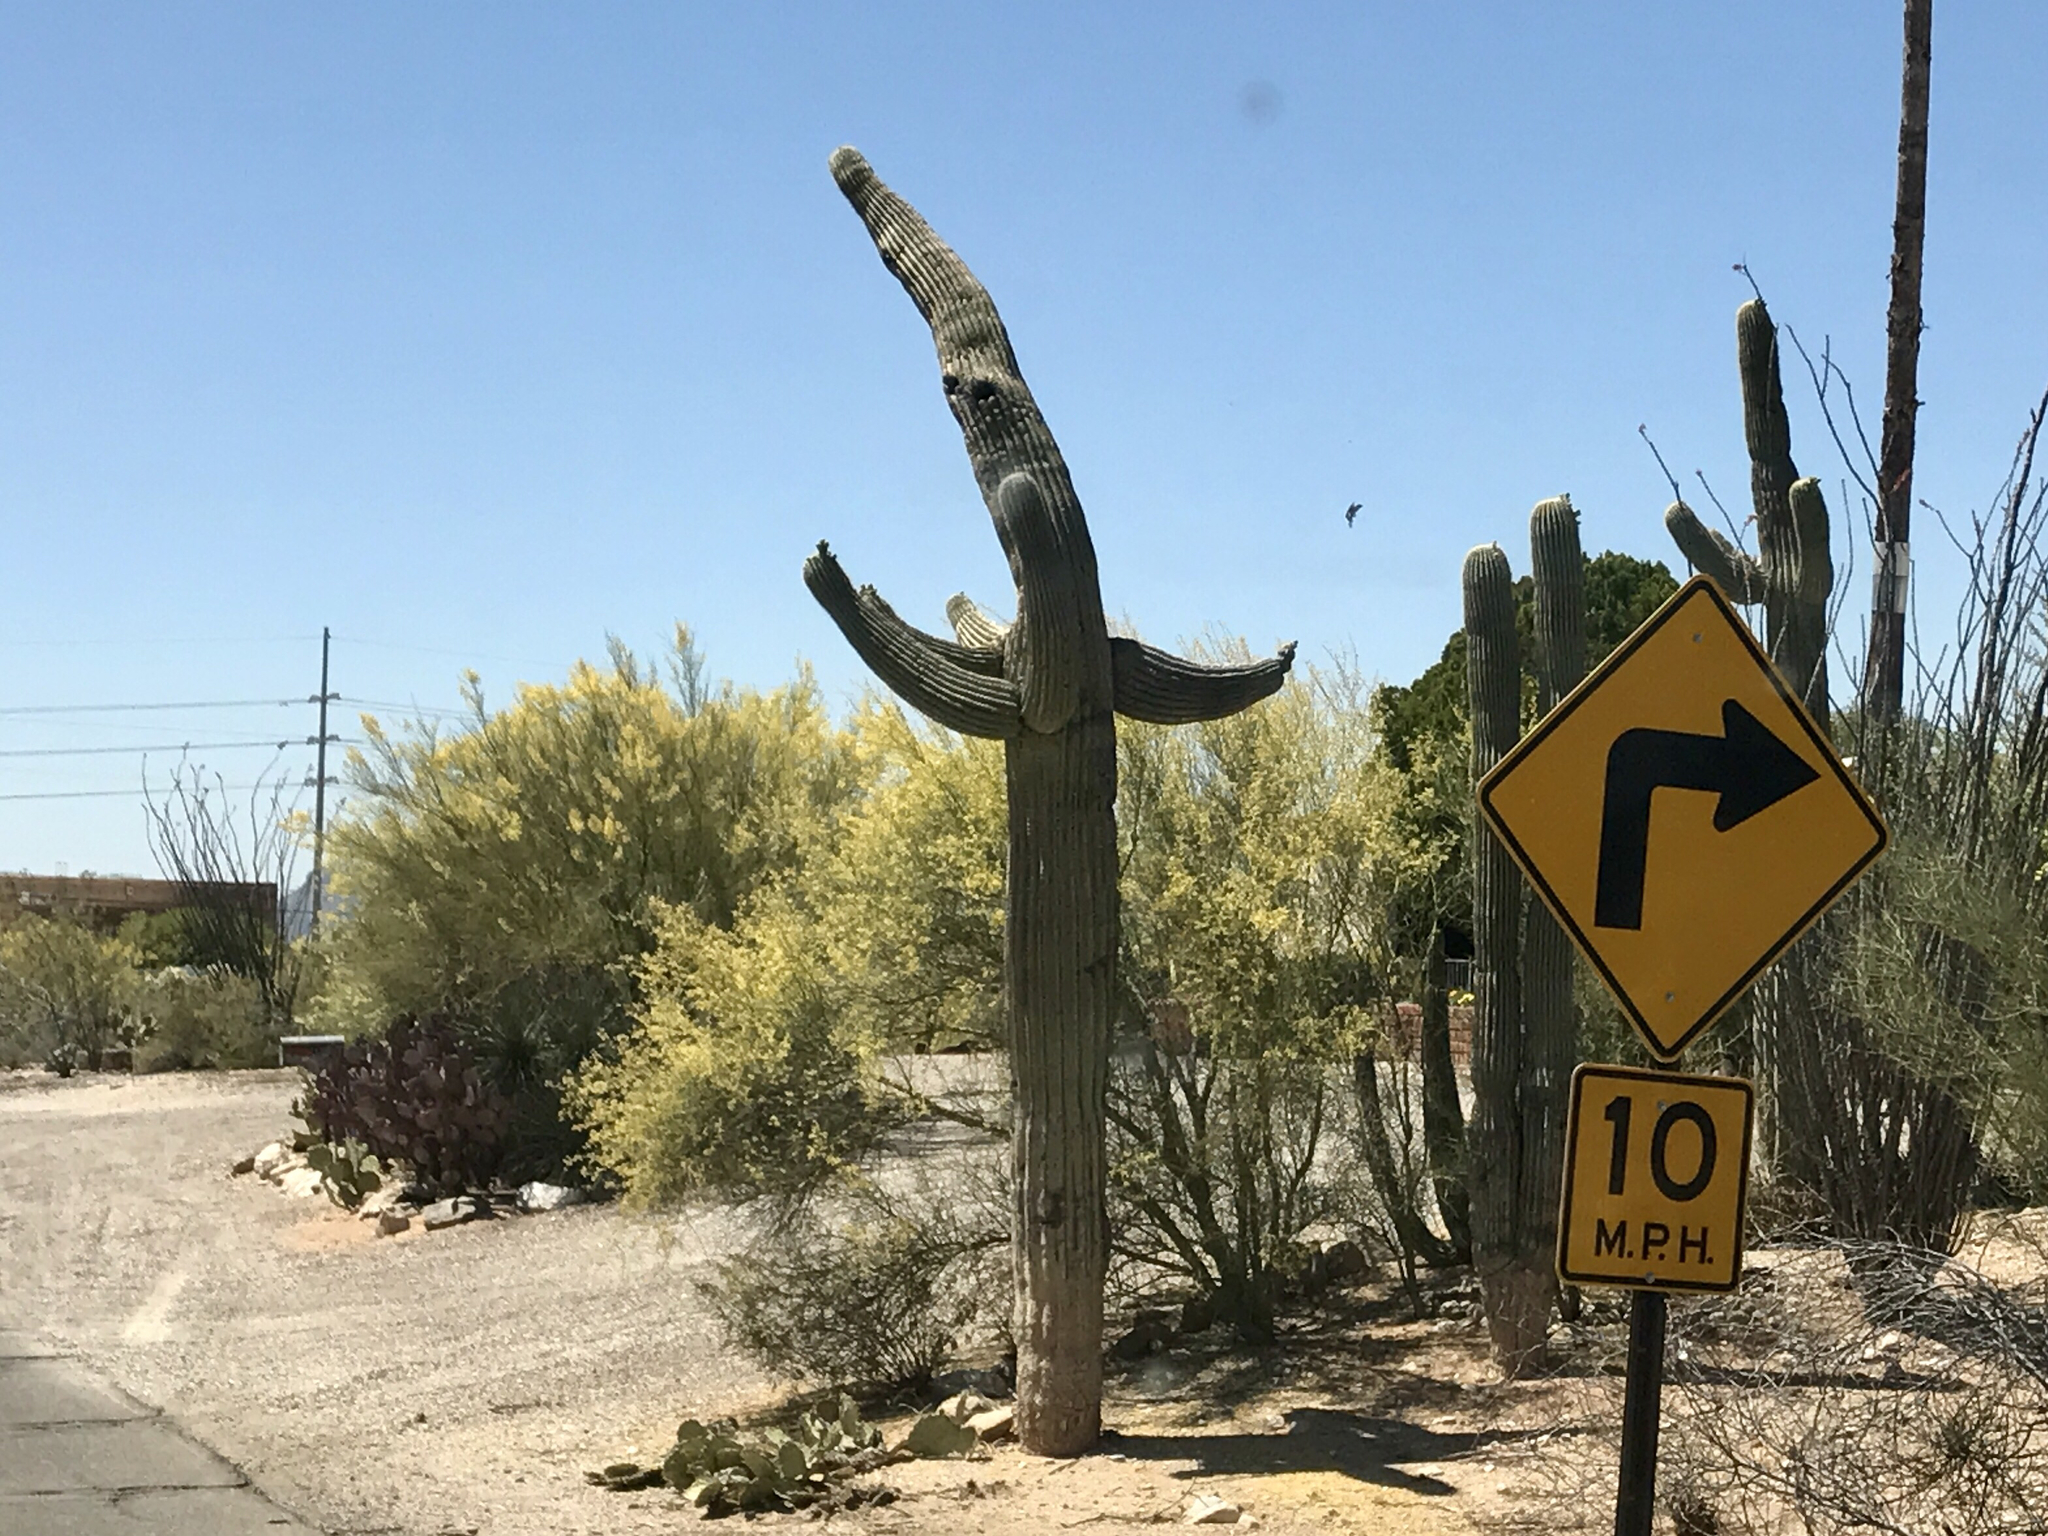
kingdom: Plantae
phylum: Tracheophyta
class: Magnoliopsida
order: Caryophyllales
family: Cactaceae
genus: Carnegiea
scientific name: Carnegiea gigantea
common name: Saguaro
